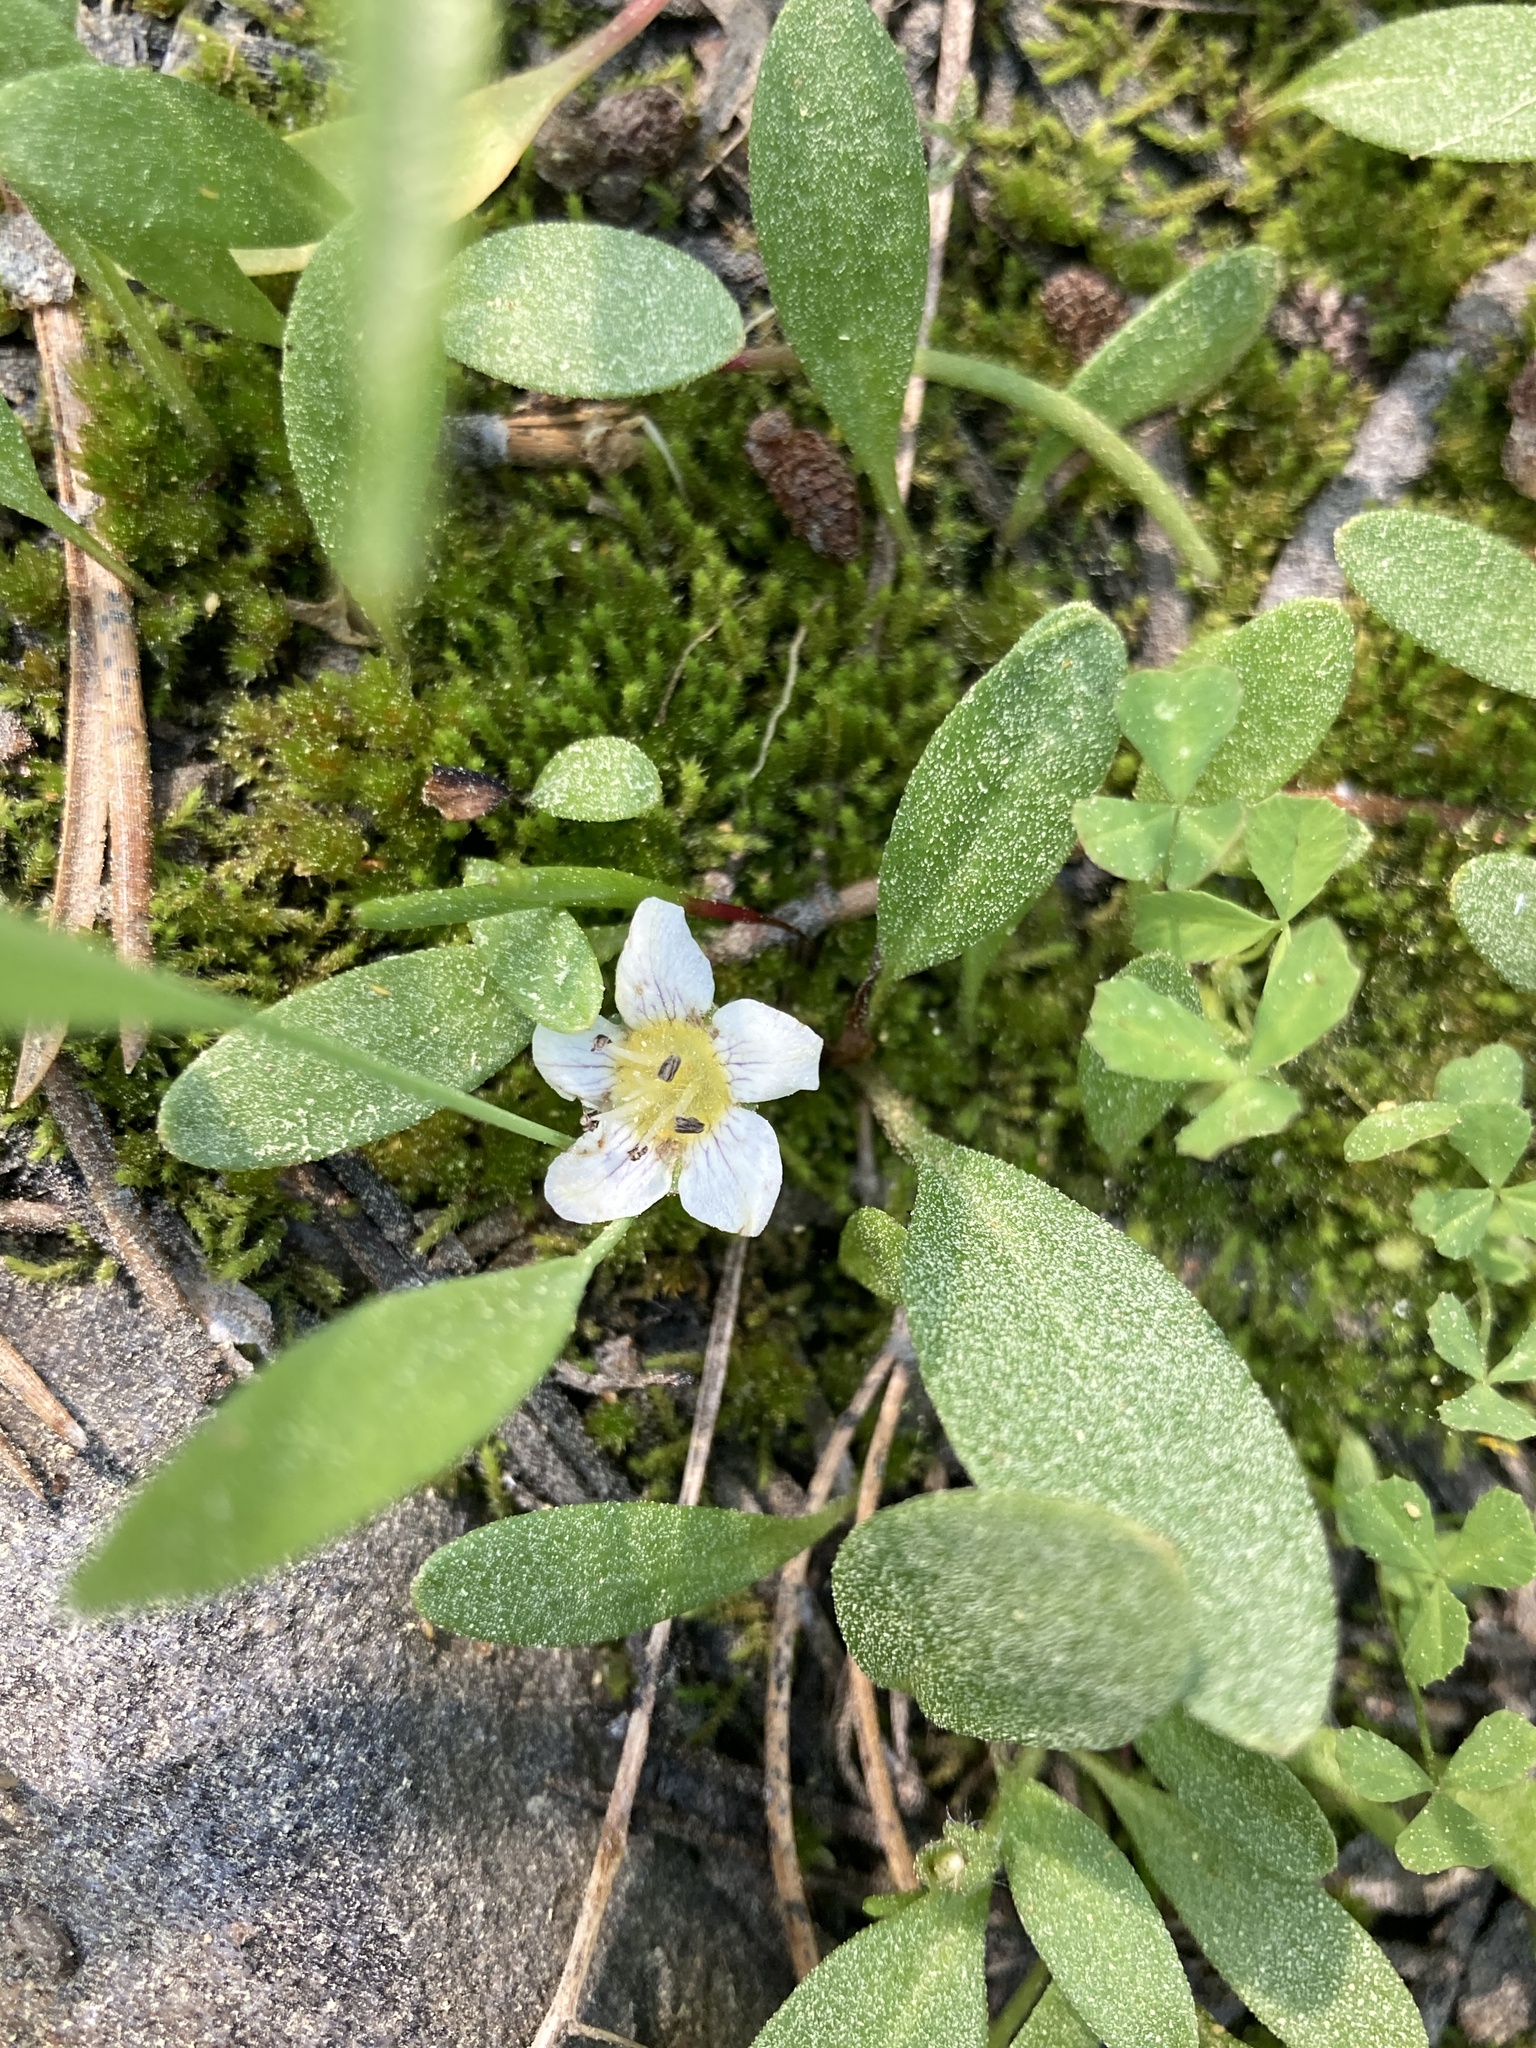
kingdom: Plantae
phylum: Tracheophyta
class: Magnoliopsida
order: Boraginales
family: Hydrophyllaceae
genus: Hesperochiron
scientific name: Hesperochiron pumilus
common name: Dwarf hesperochiron
